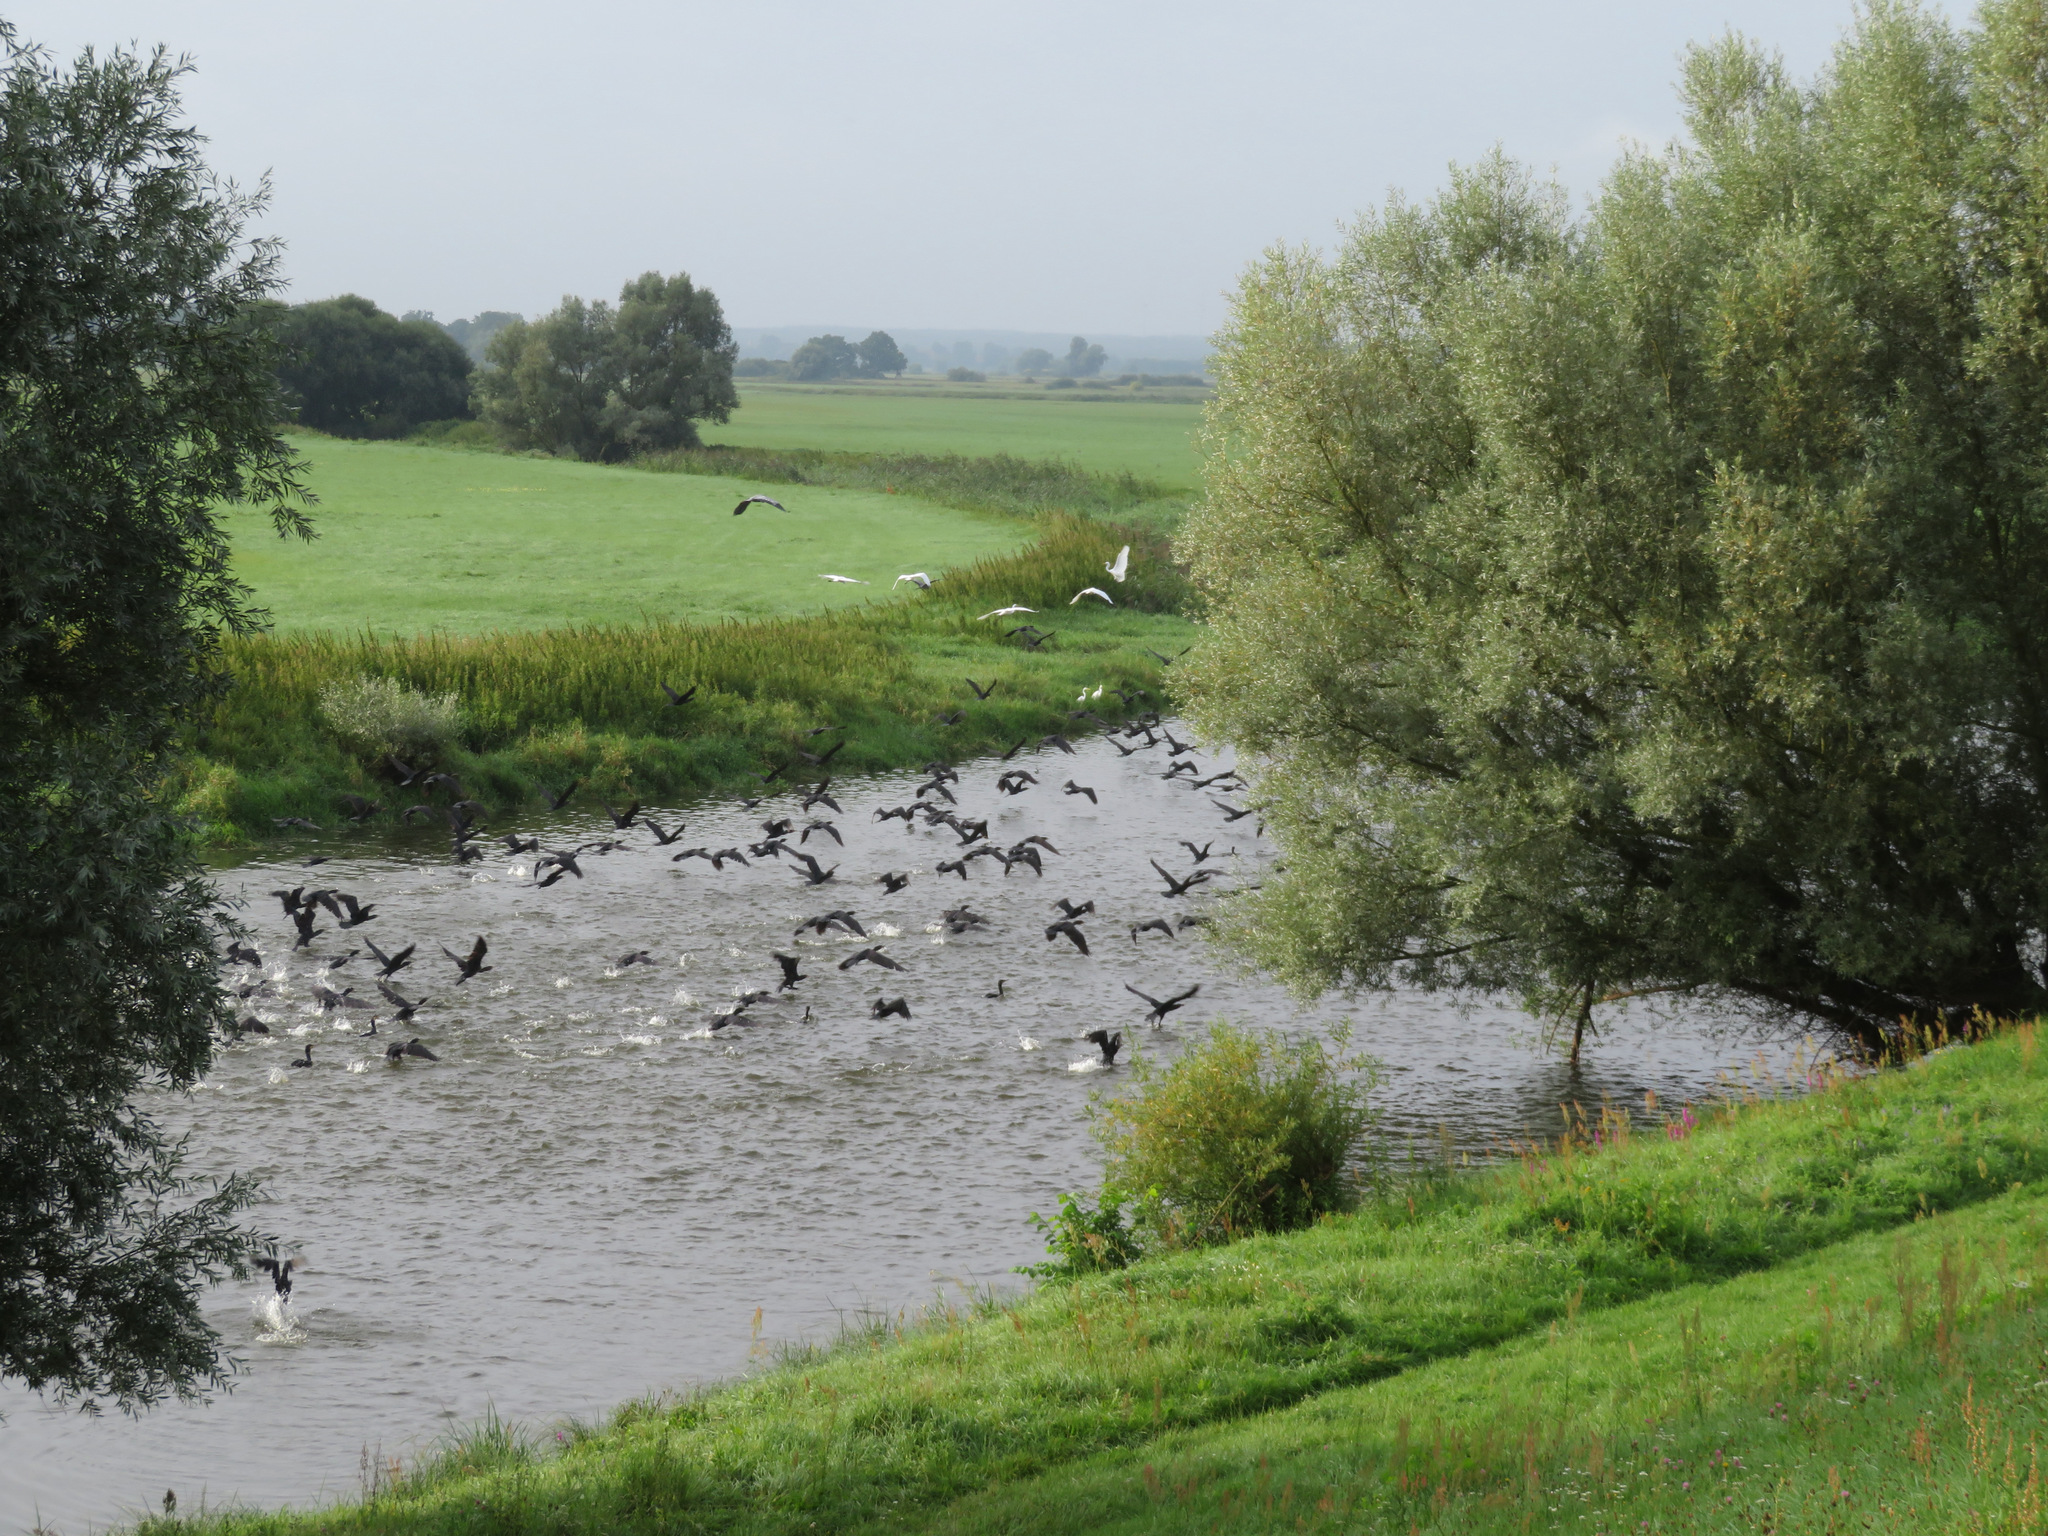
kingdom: Animalia
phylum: Chordata
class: Aves
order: Suliformes
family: Phalacrocoracidae
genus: Phalacrocorax
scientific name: Phalacrocorax carbo
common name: Great cormorant
